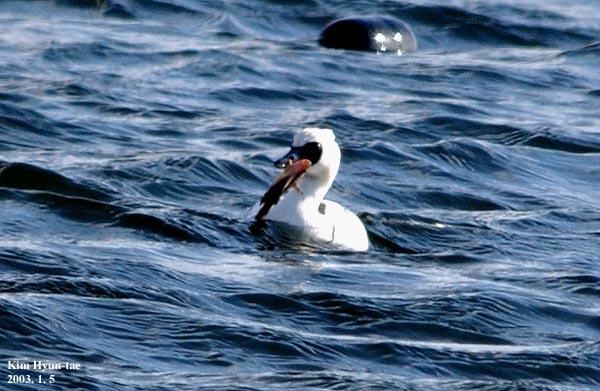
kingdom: Animalia
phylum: Chordata
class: Aves
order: Anseriformes
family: Anatidae
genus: Mergellus
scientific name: Mergellus albellus
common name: Smew
